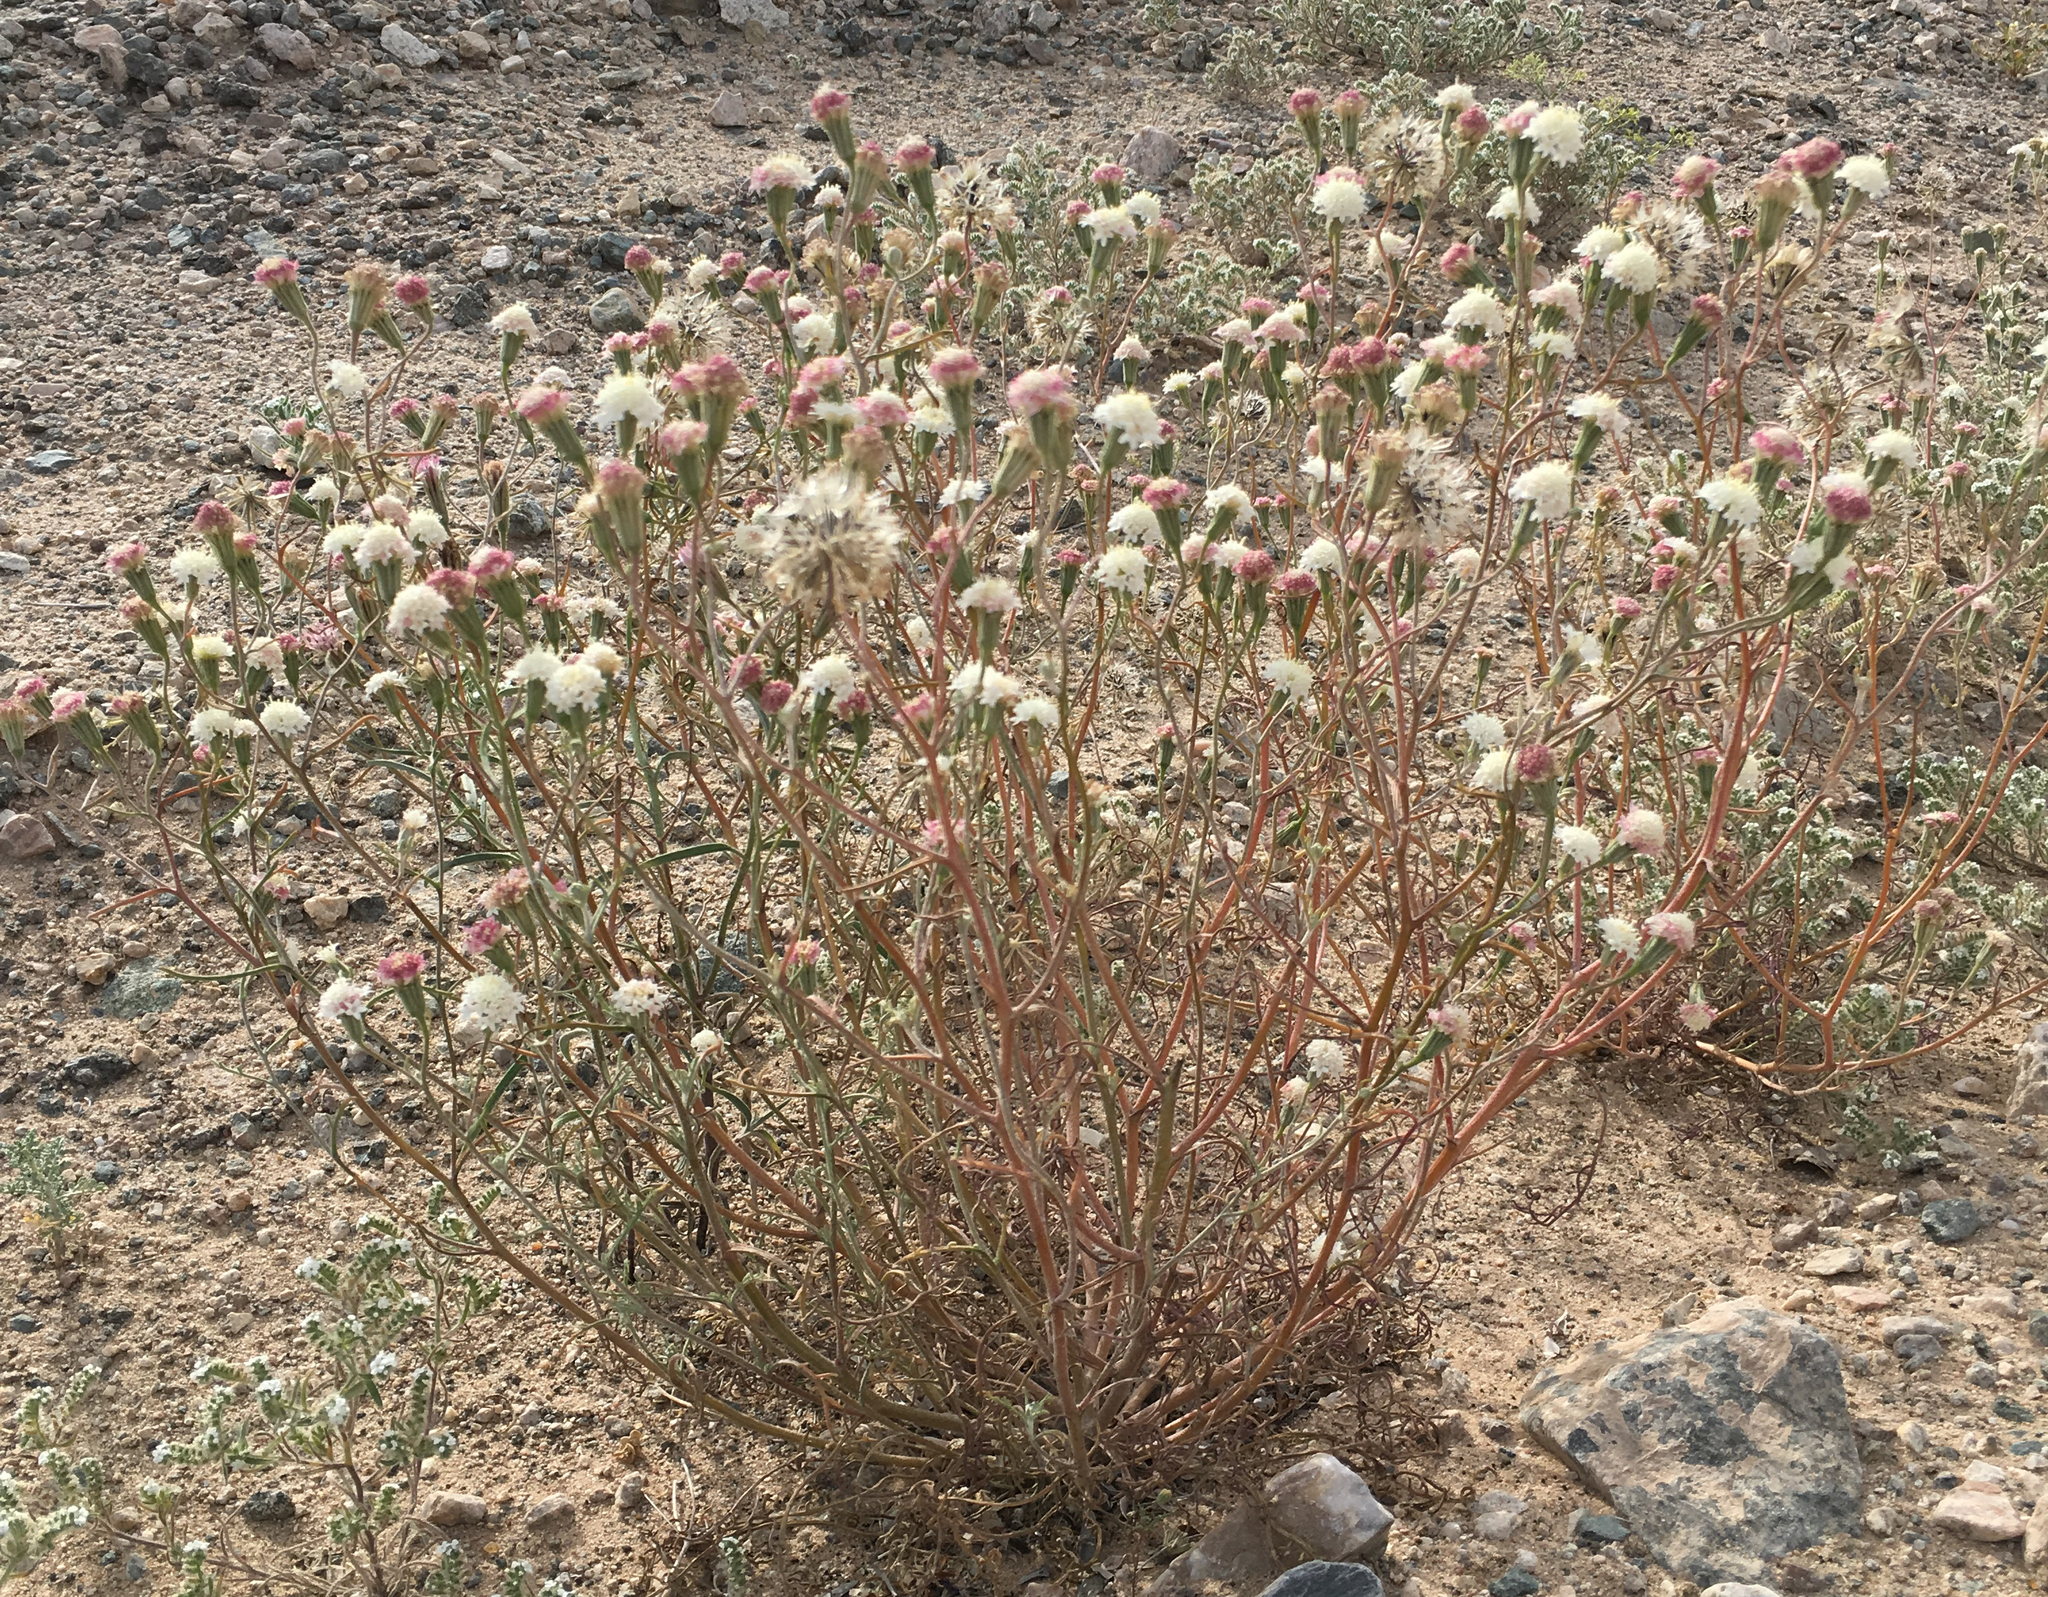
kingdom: Plantae
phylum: Tracheophyta
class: Magnoliopsida
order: Asterales
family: Asteraceae
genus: Chaenactis
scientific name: Chaenactis stevioides
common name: Desert pincushion
